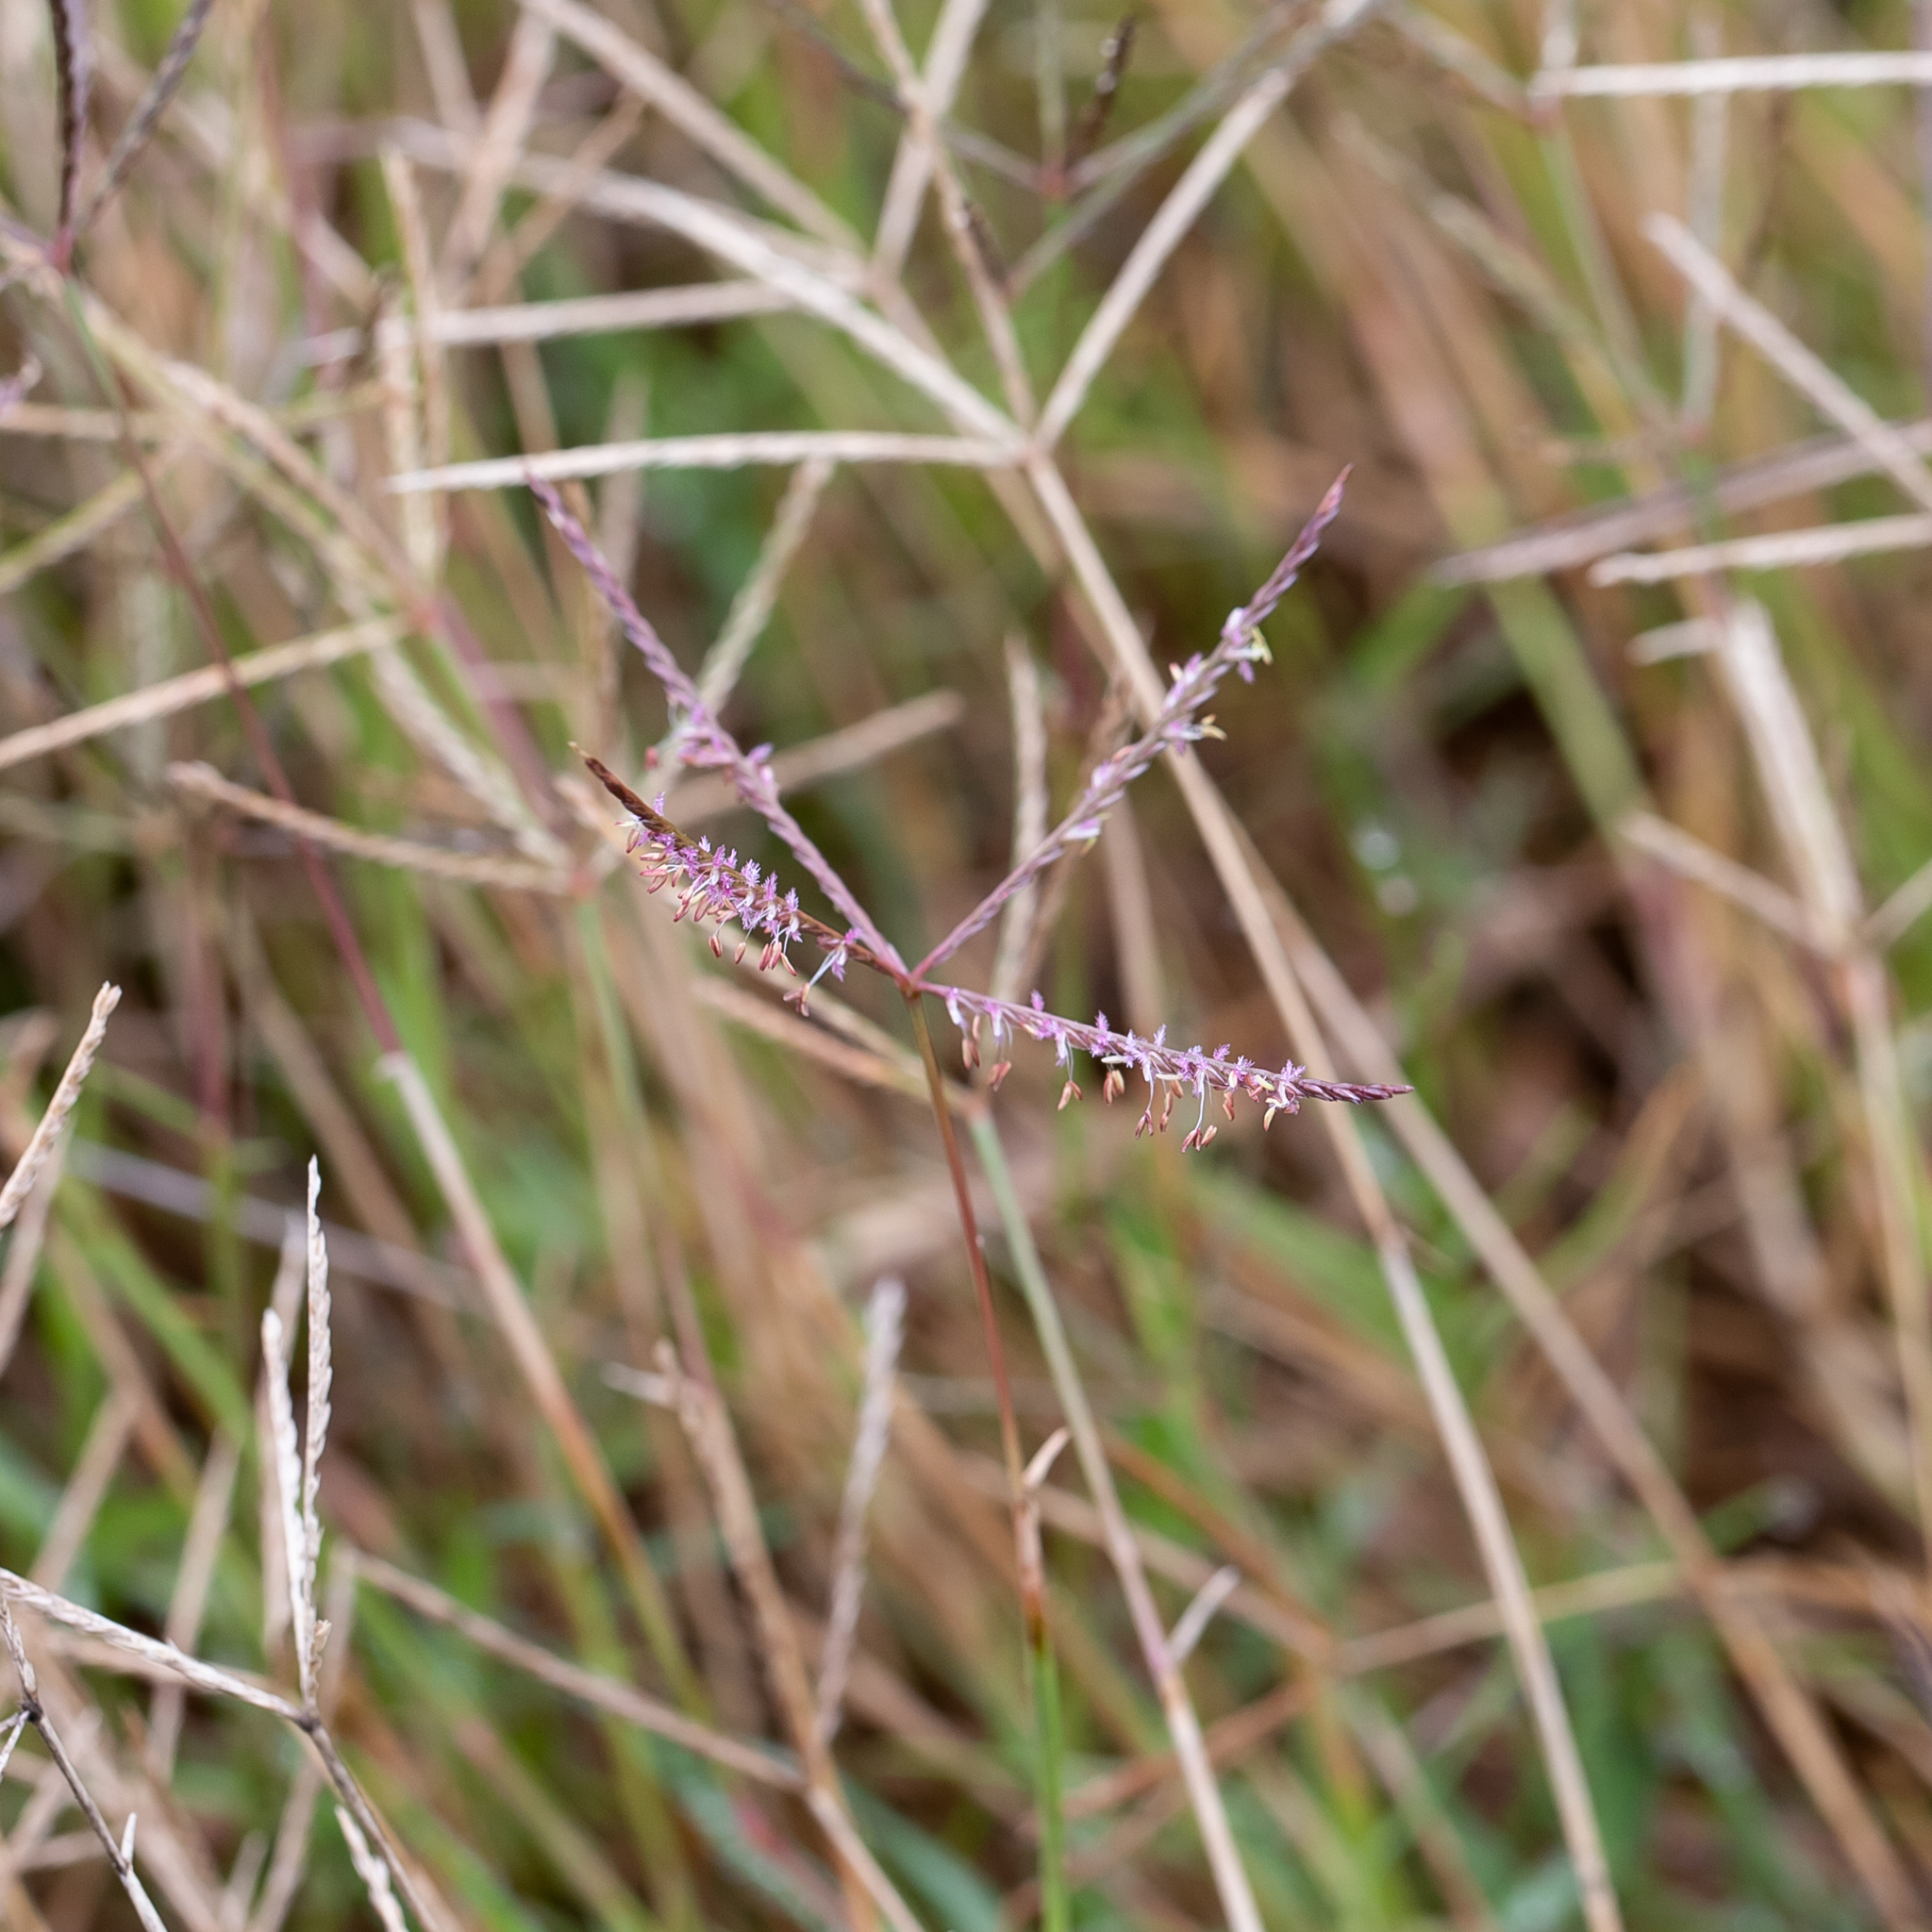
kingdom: Plantae
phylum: Tracheophyta
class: Liliopsida
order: Poales
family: Poaceae
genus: Cynodon
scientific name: Cynodon dactylon
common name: Bermuda grass
